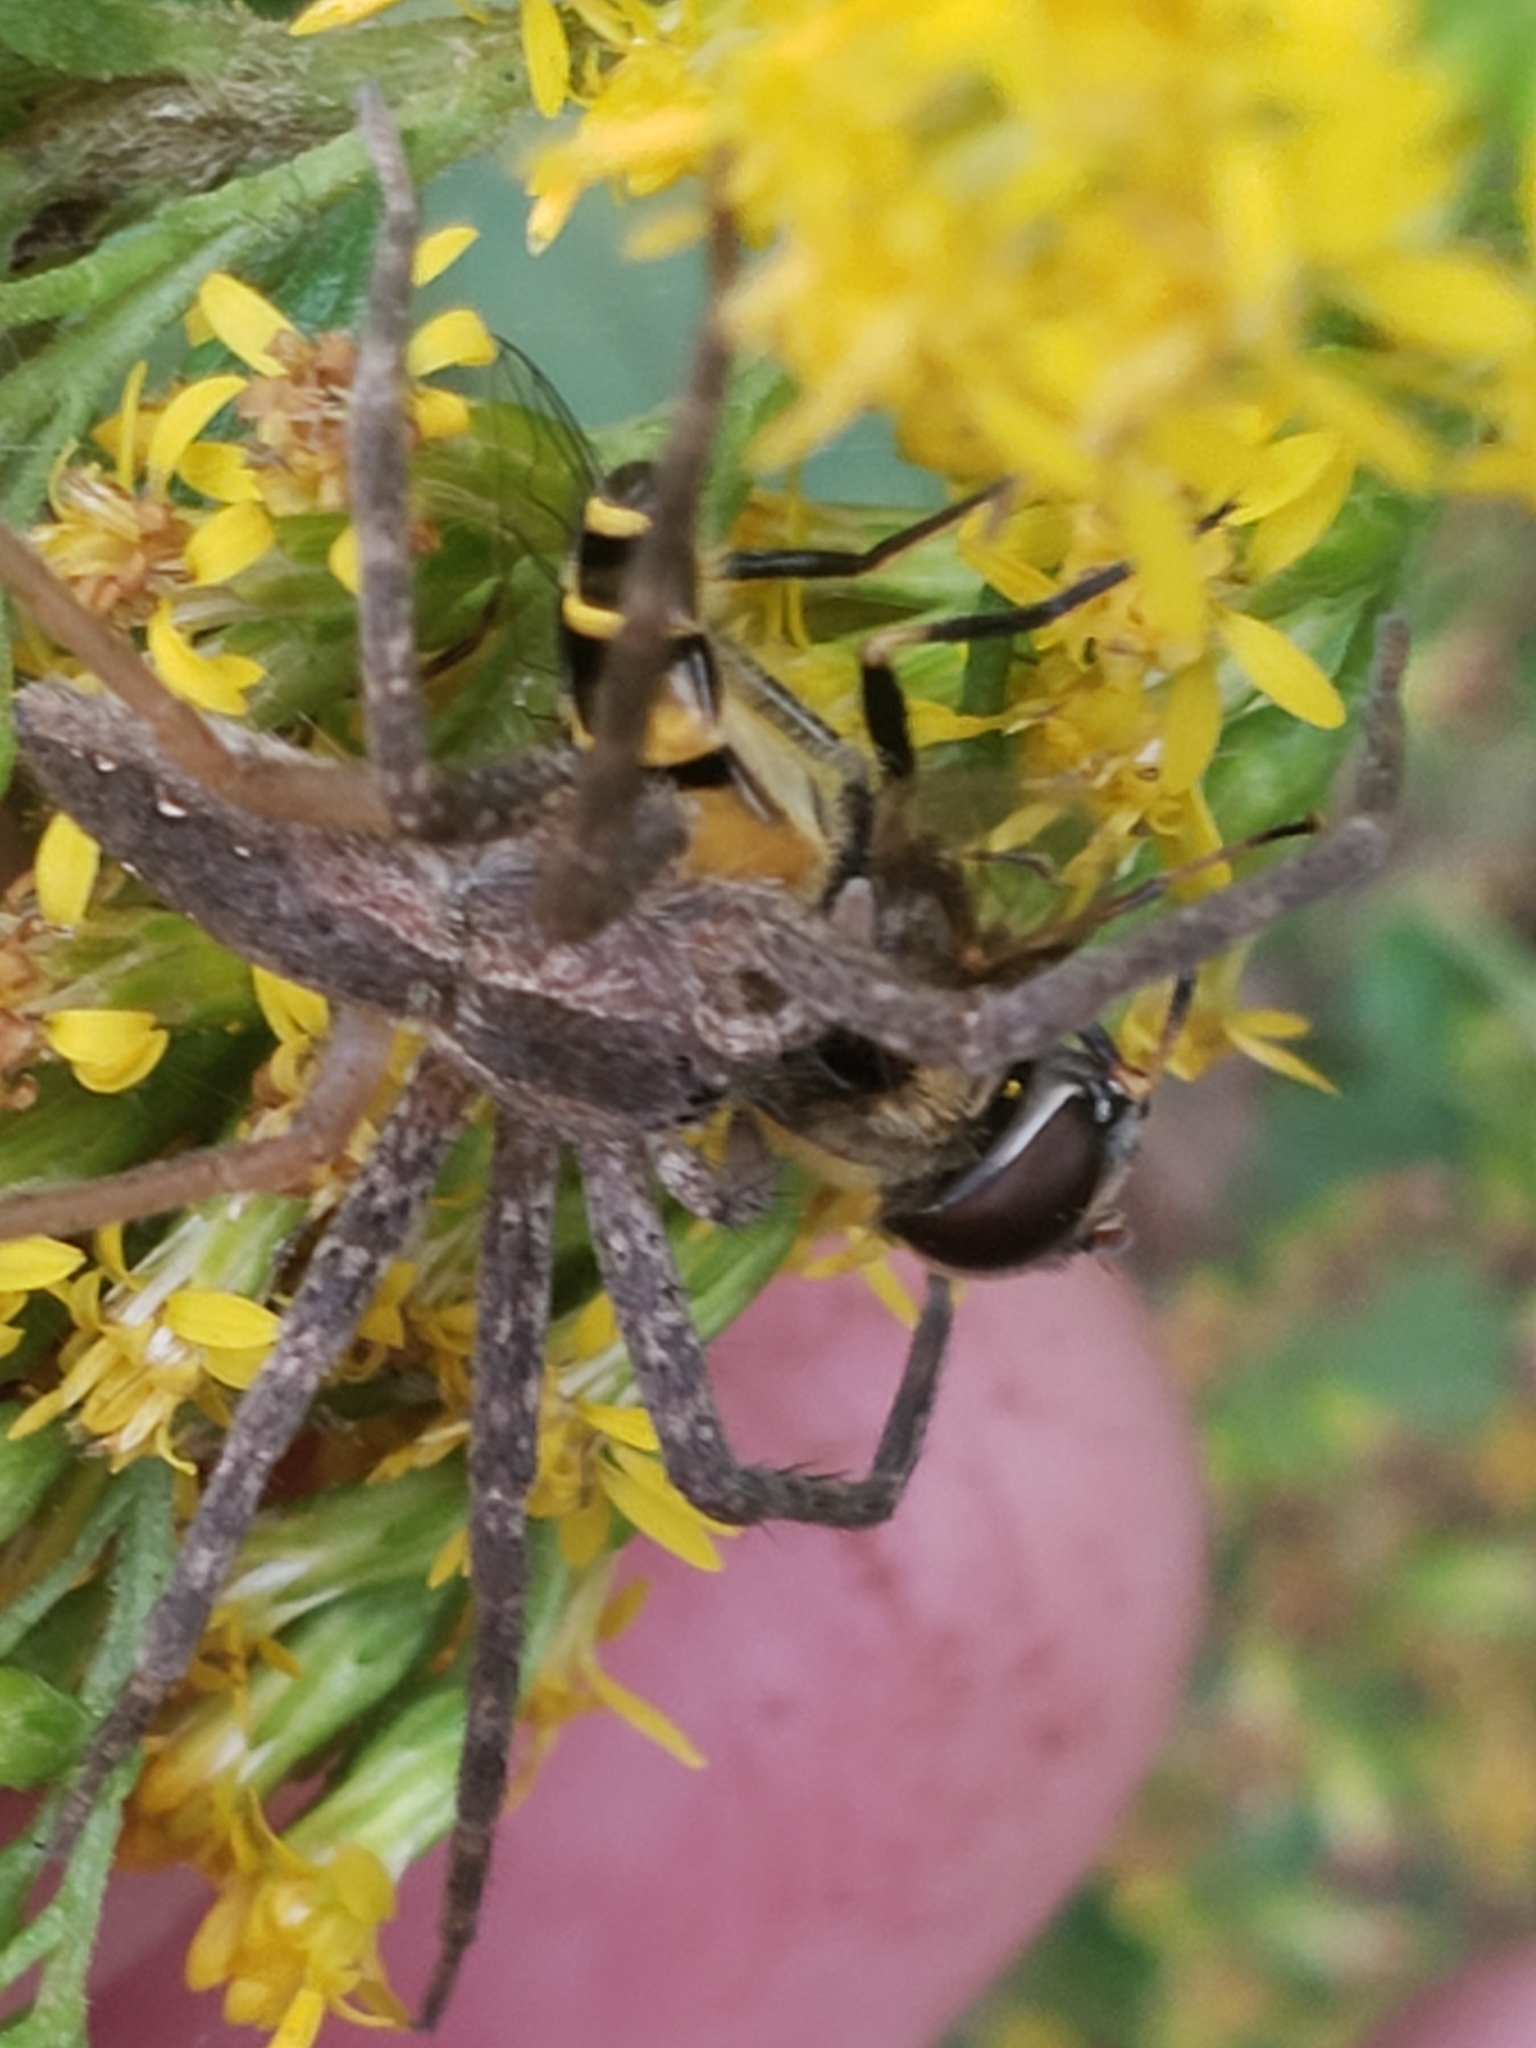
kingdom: Animalia
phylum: Arthropoda
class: Insecta
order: Diptera
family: Syrphidae
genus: Eristalis
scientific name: Eristalis transversa
